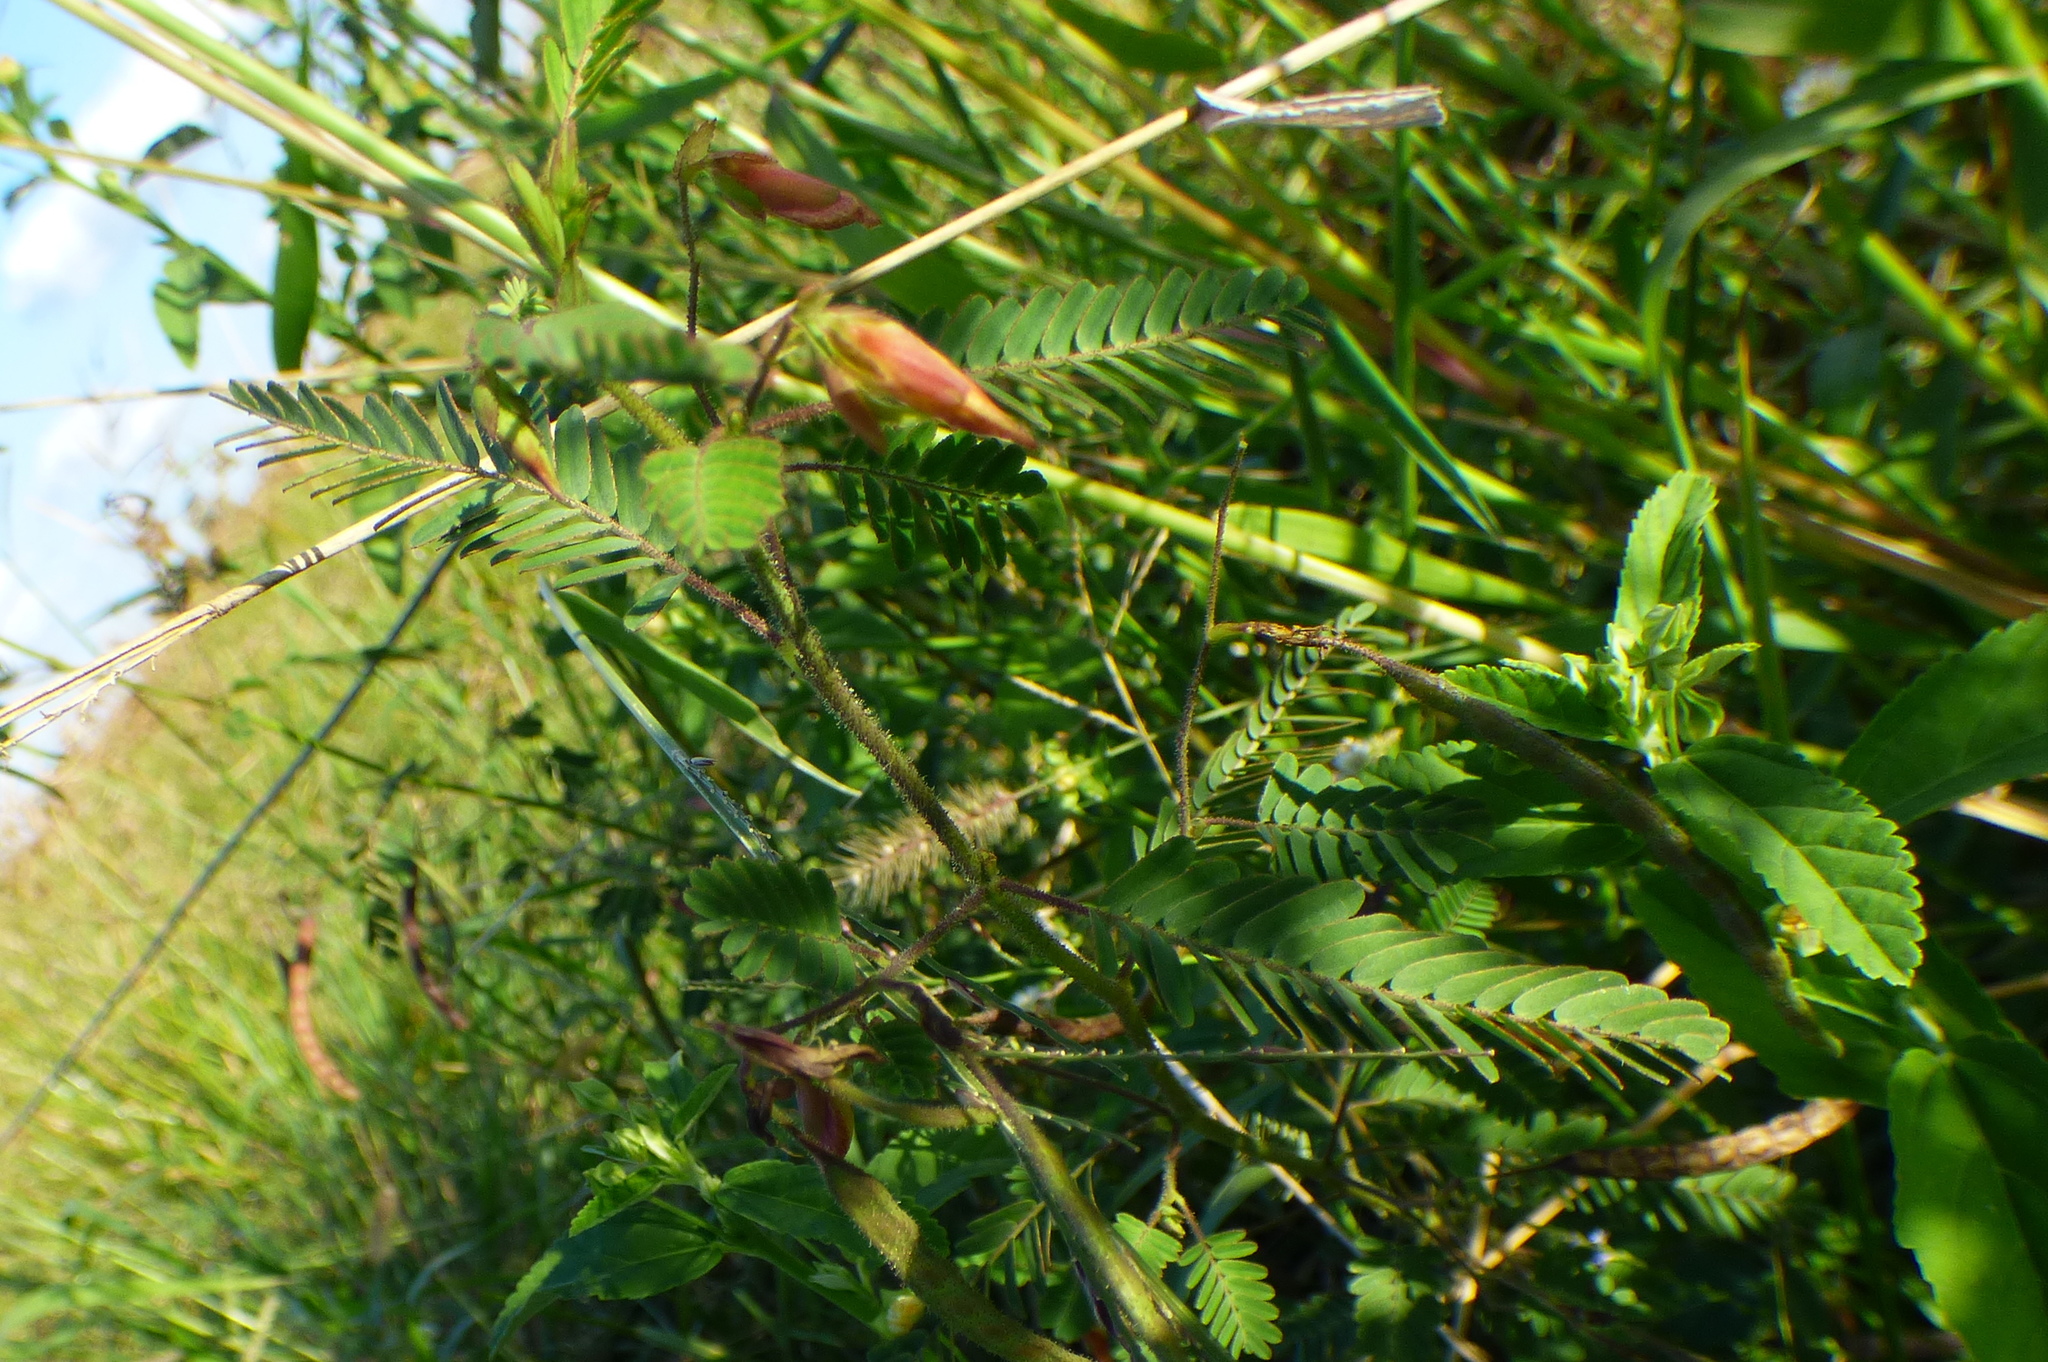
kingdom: Plantae
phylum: Tracheophyta
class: Magnoliopsida
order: Fabales
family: Fabaceae
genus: Chamaecrista
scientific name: Chamaecrista repens
